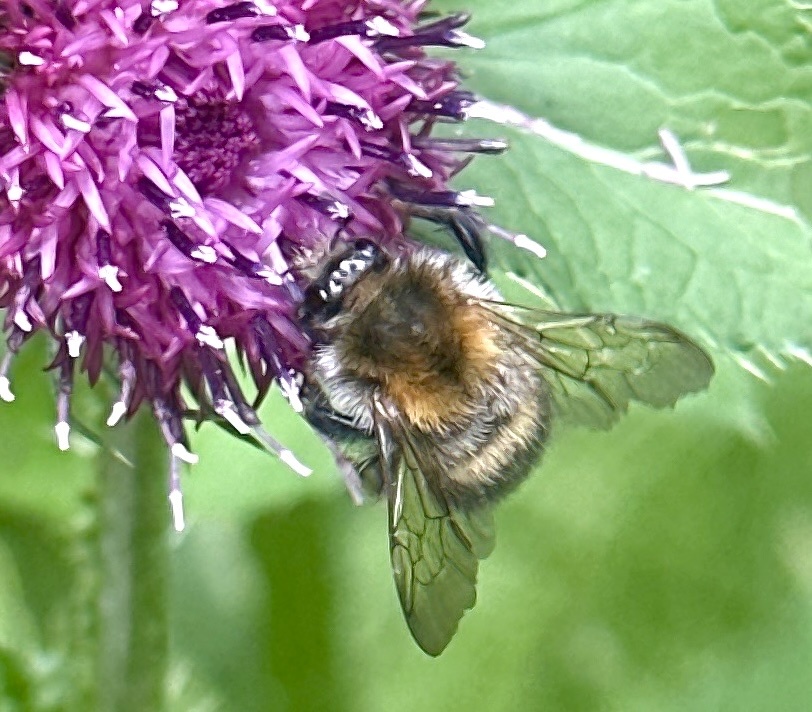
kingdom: Animalia
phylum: Arthropoda
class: Insecta
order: Hymenoptera
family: Apidae
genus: Bombus
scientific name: Bombus pascuorum
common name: Common carder bee
